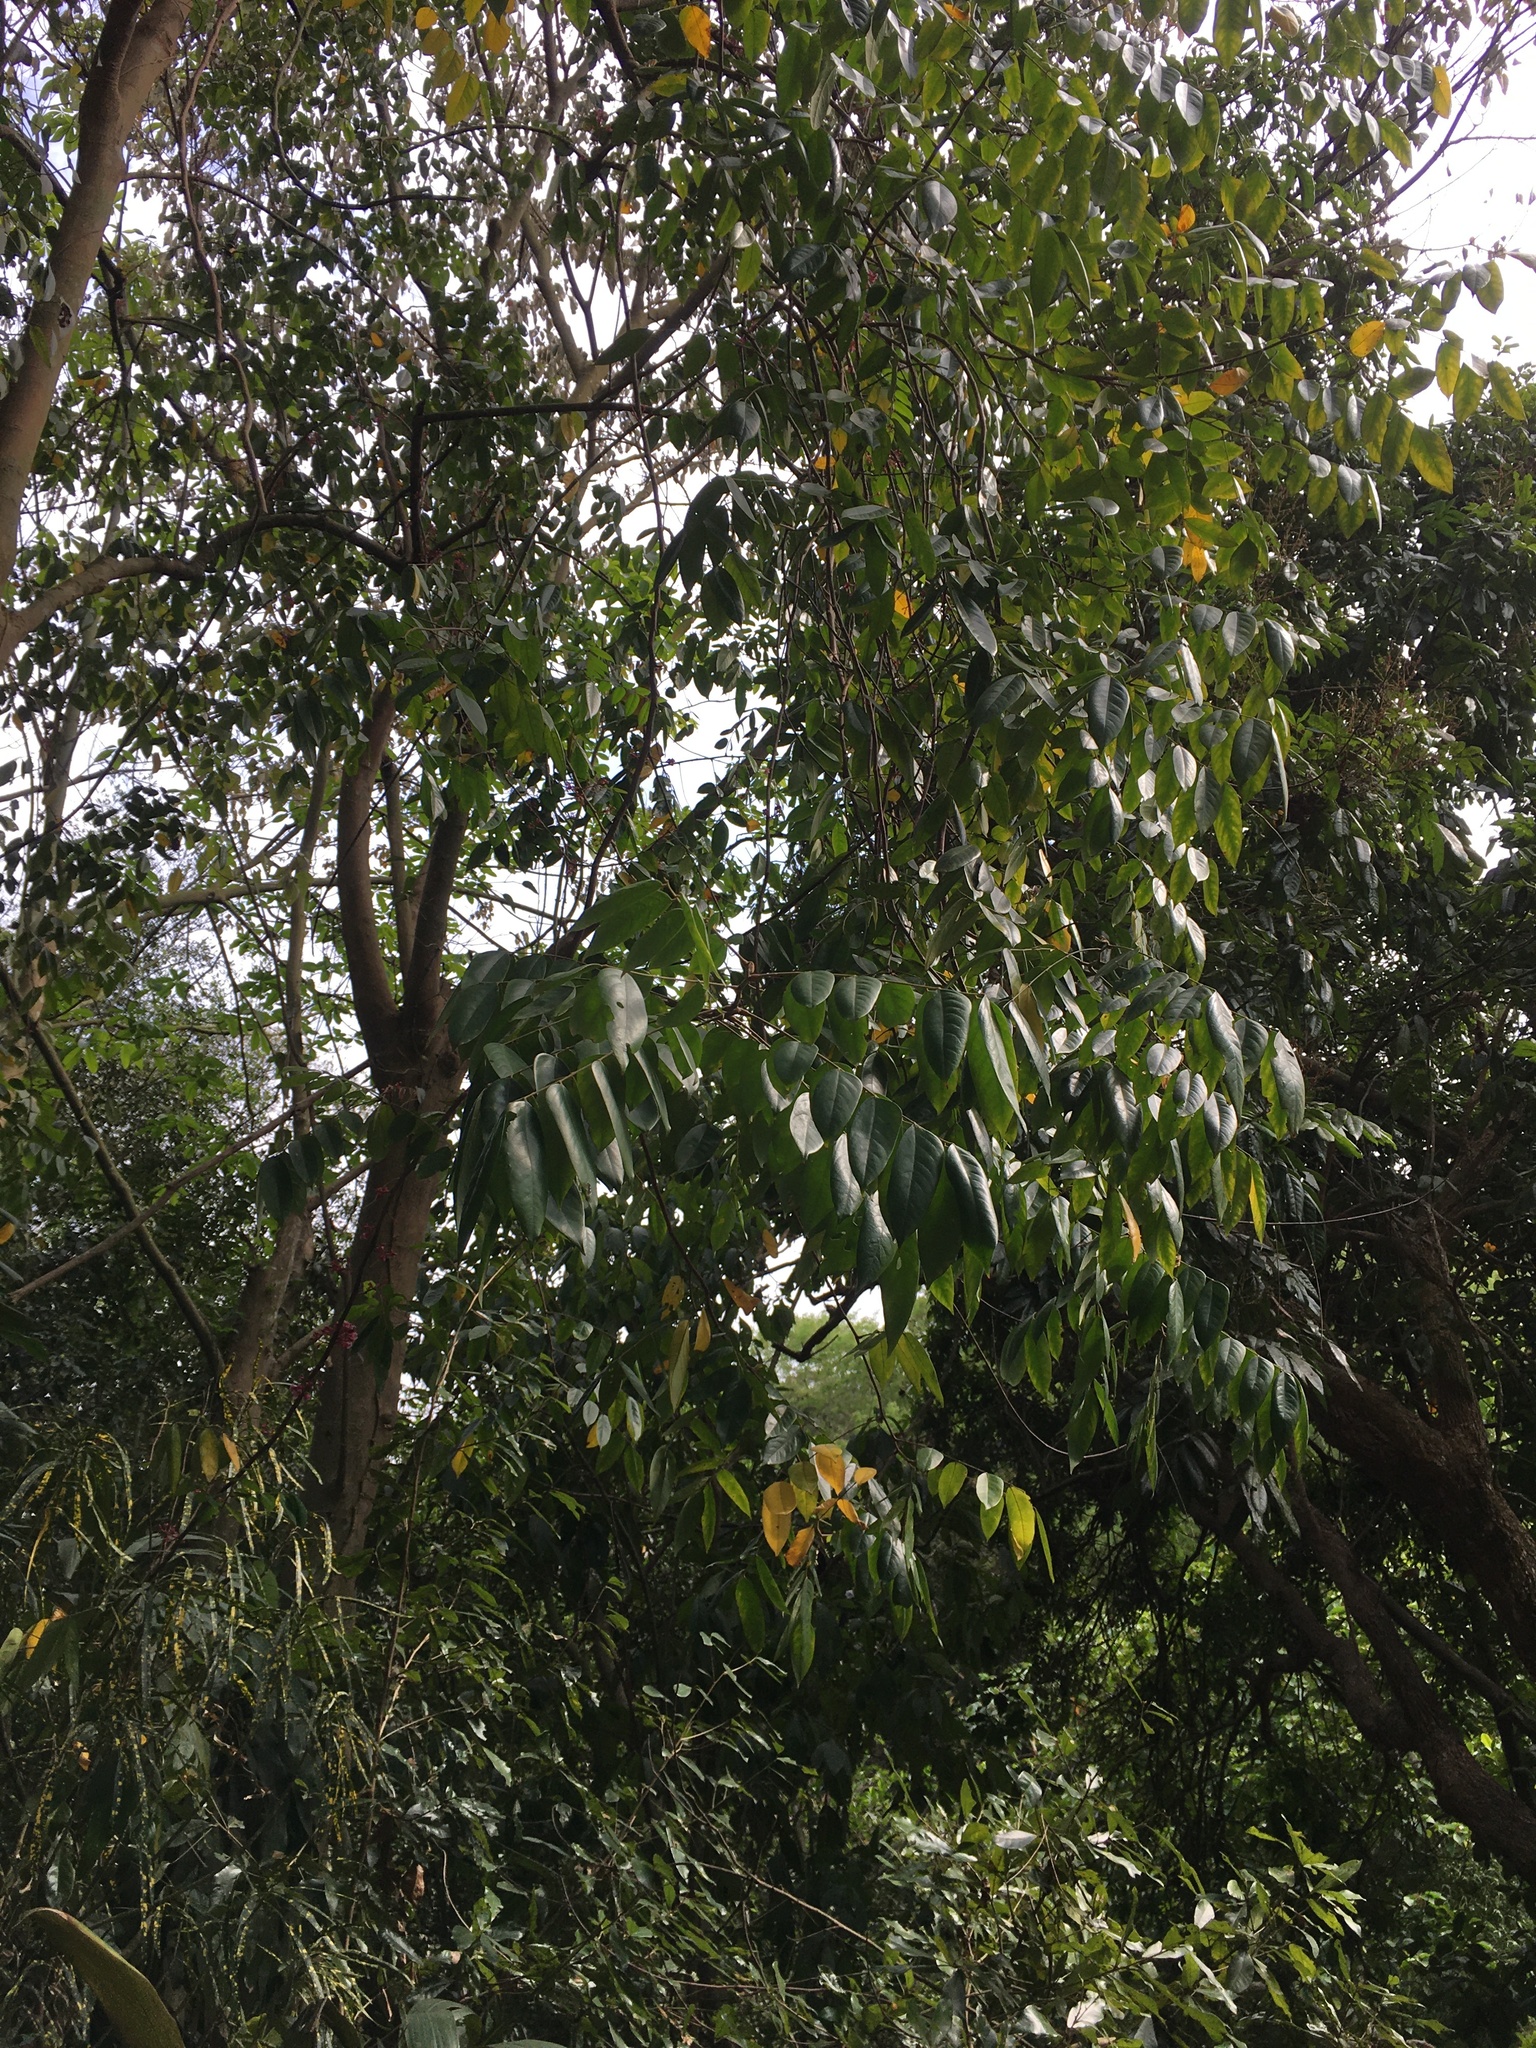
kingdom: Plantae
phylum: Tracheophyta
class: Magnoliopsida
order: Oxalidales
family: Oxalidaceae
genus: Averrhoa
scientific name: Averrhoa carambola
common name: Blimbing
